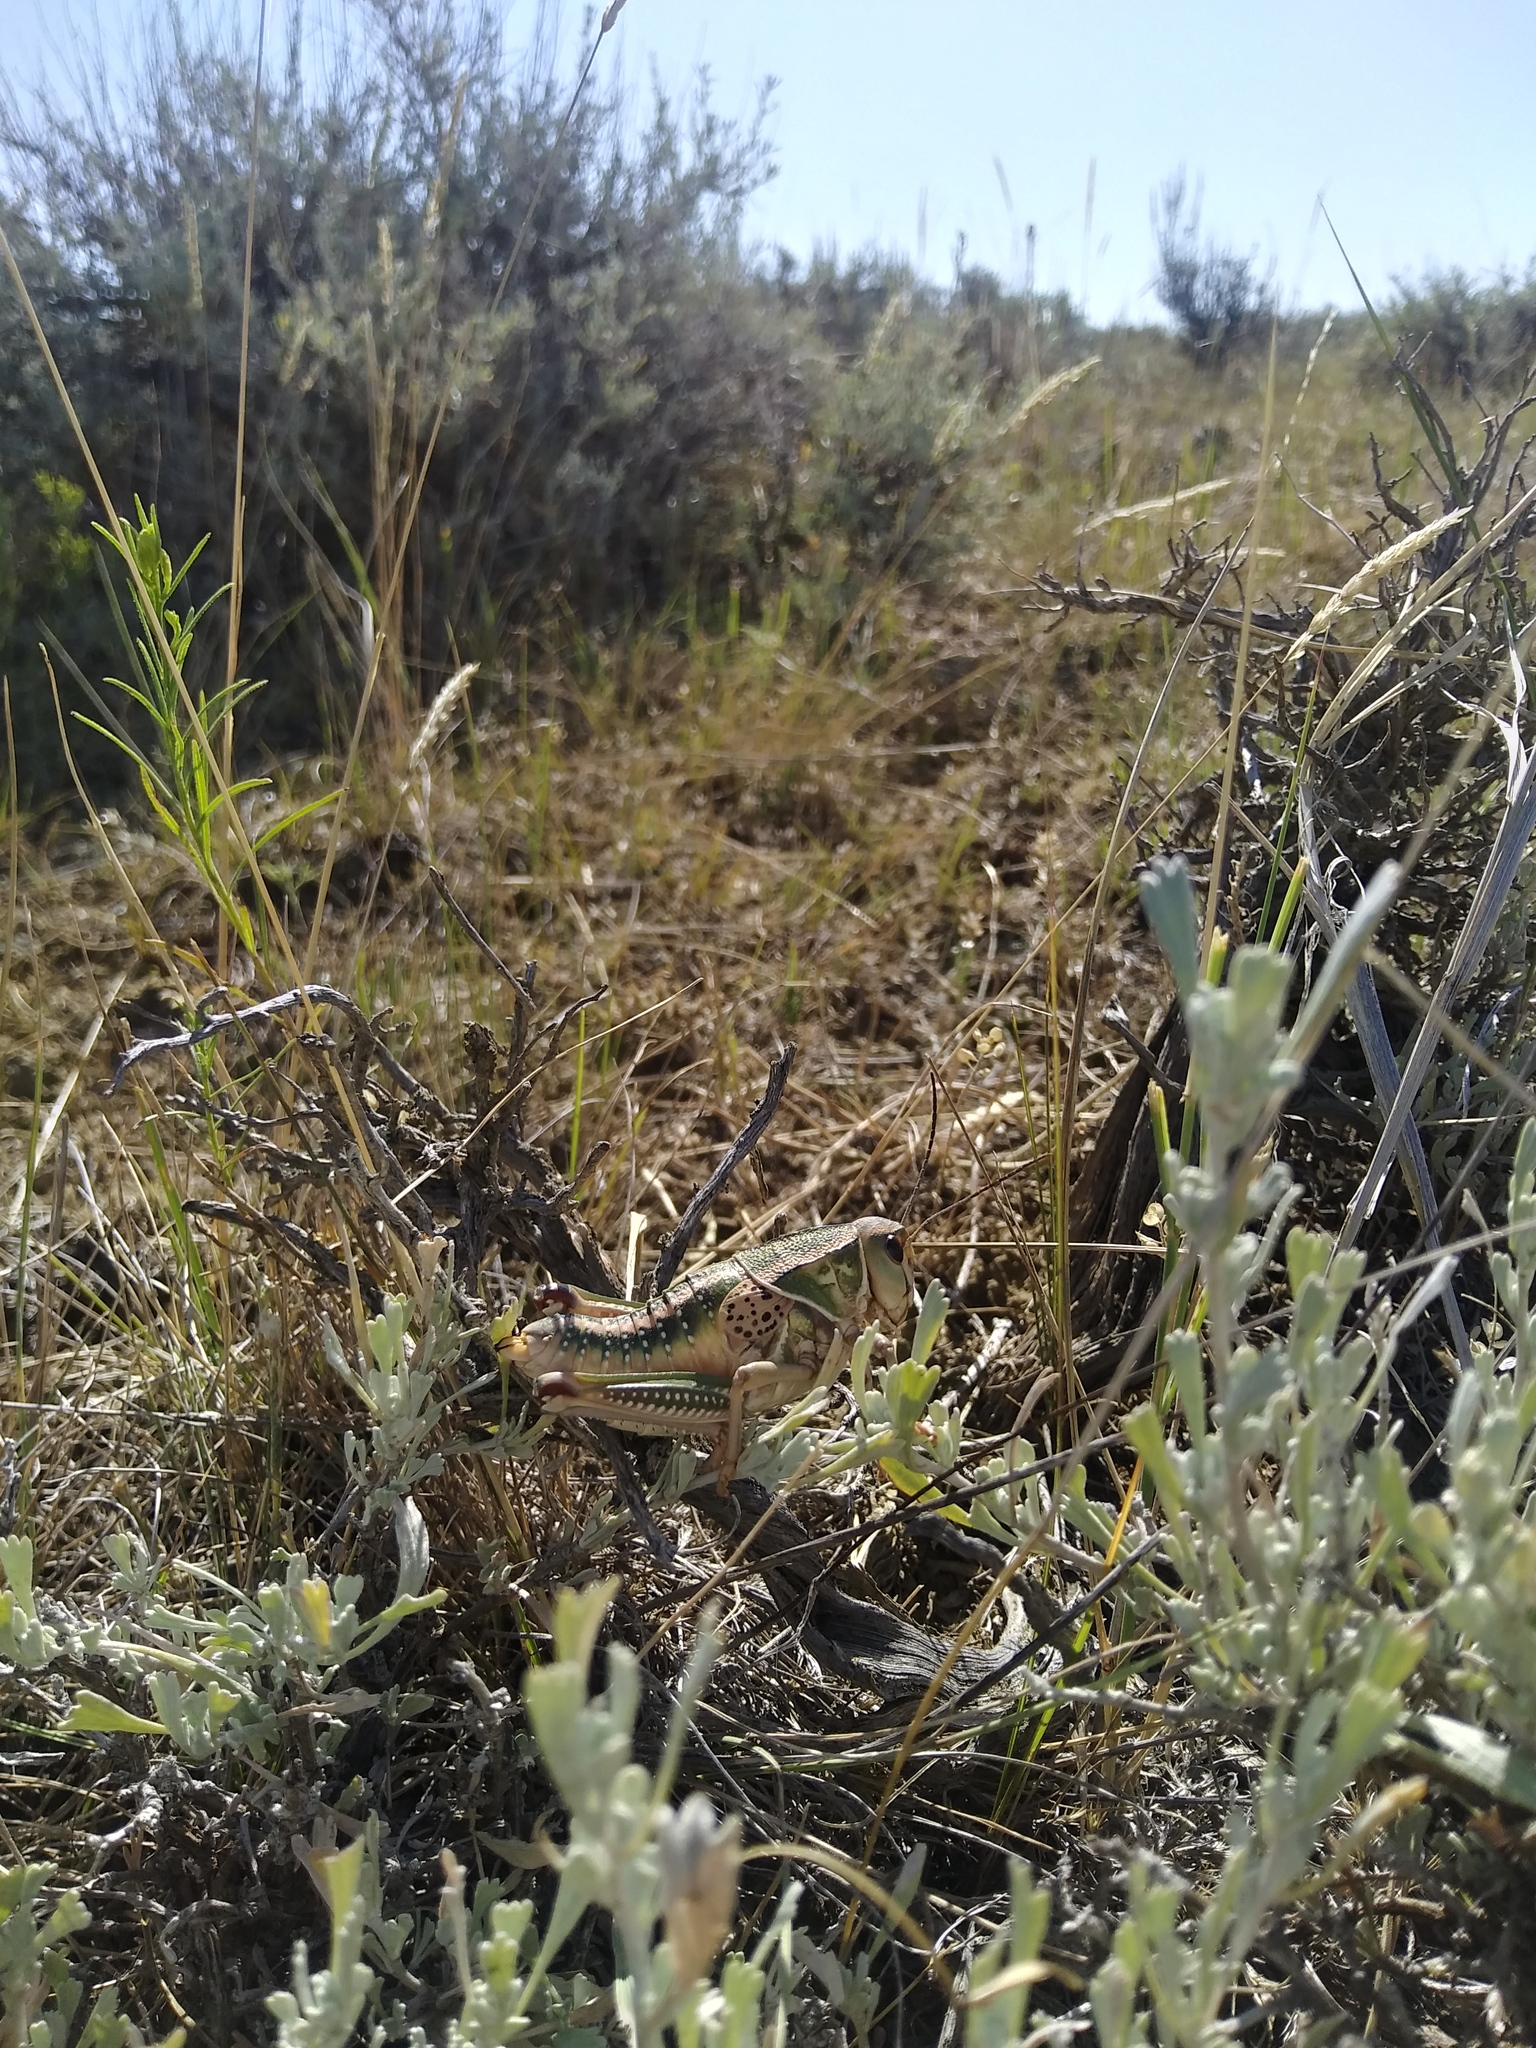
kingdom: Animalia
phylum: Arthropoda
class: Insecta
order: Orthoptera
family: Romaleidae
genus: Brachystola
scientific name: Brachystola magna
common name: Plains lubber grasshopper
